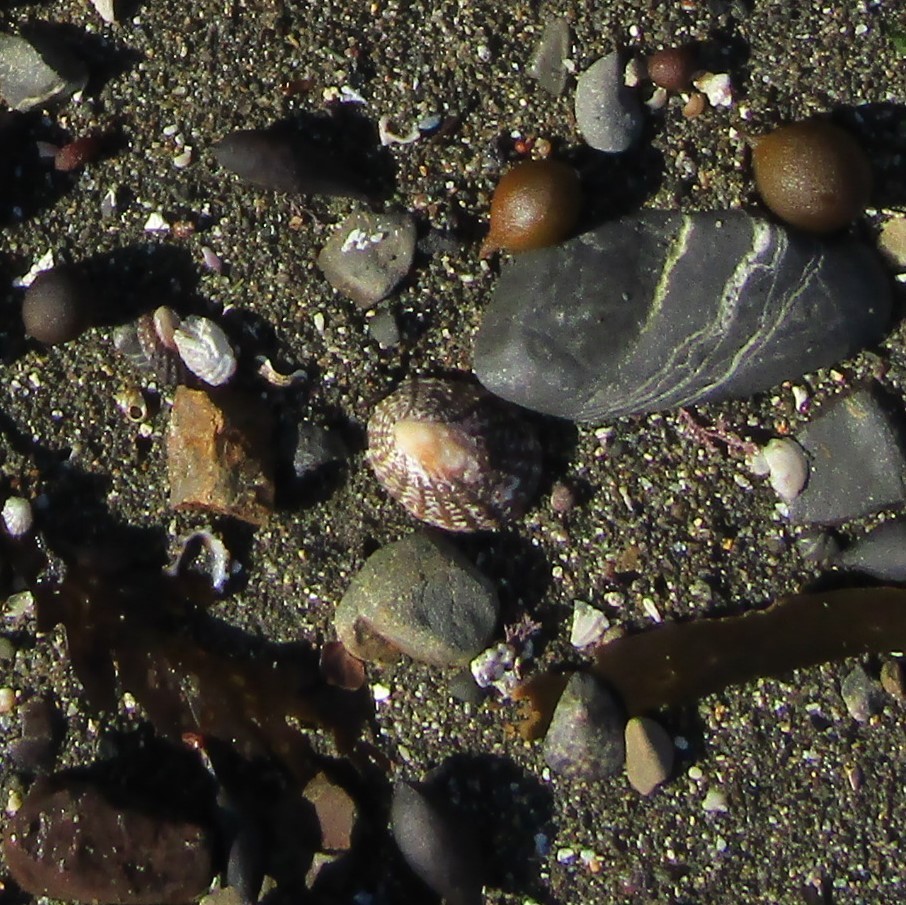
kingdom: Animalia
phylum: Mollusca
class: Gastropoda
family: Nacellidae
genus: Cellana
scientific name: Cellana denticulata
